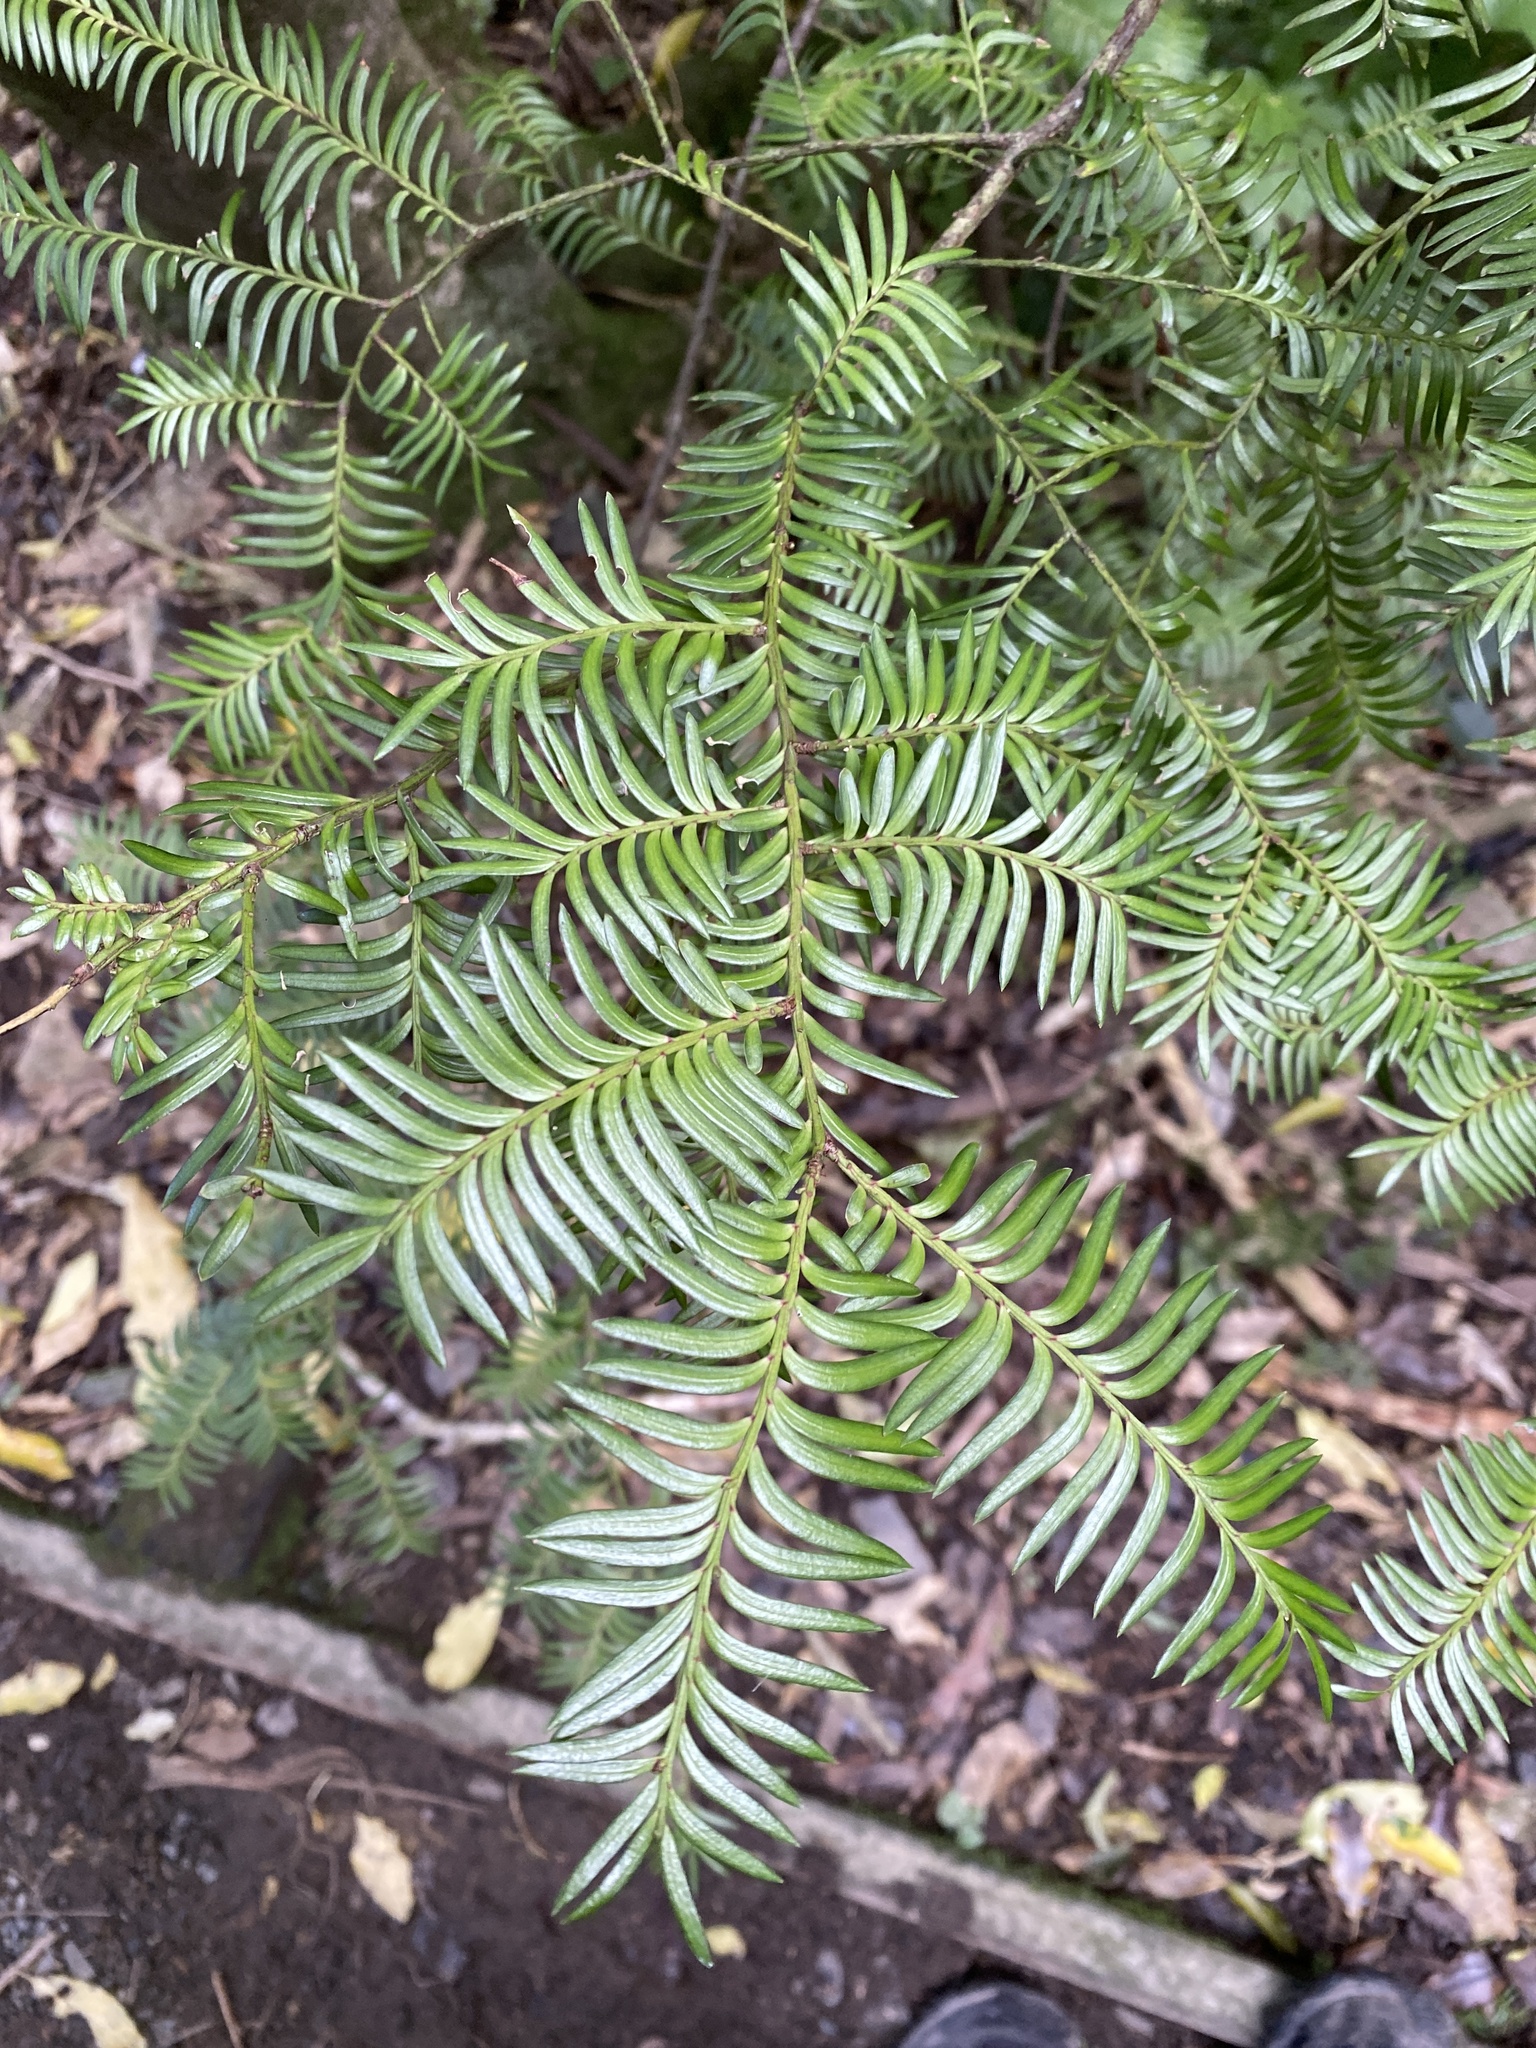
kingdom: Plantae
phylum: Tracheophyta
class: Pinopsida
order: Pinales
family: Podocarpaceae
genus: Prumnopitys
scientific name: Prumnopitys ferruginea
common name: Brown pine
